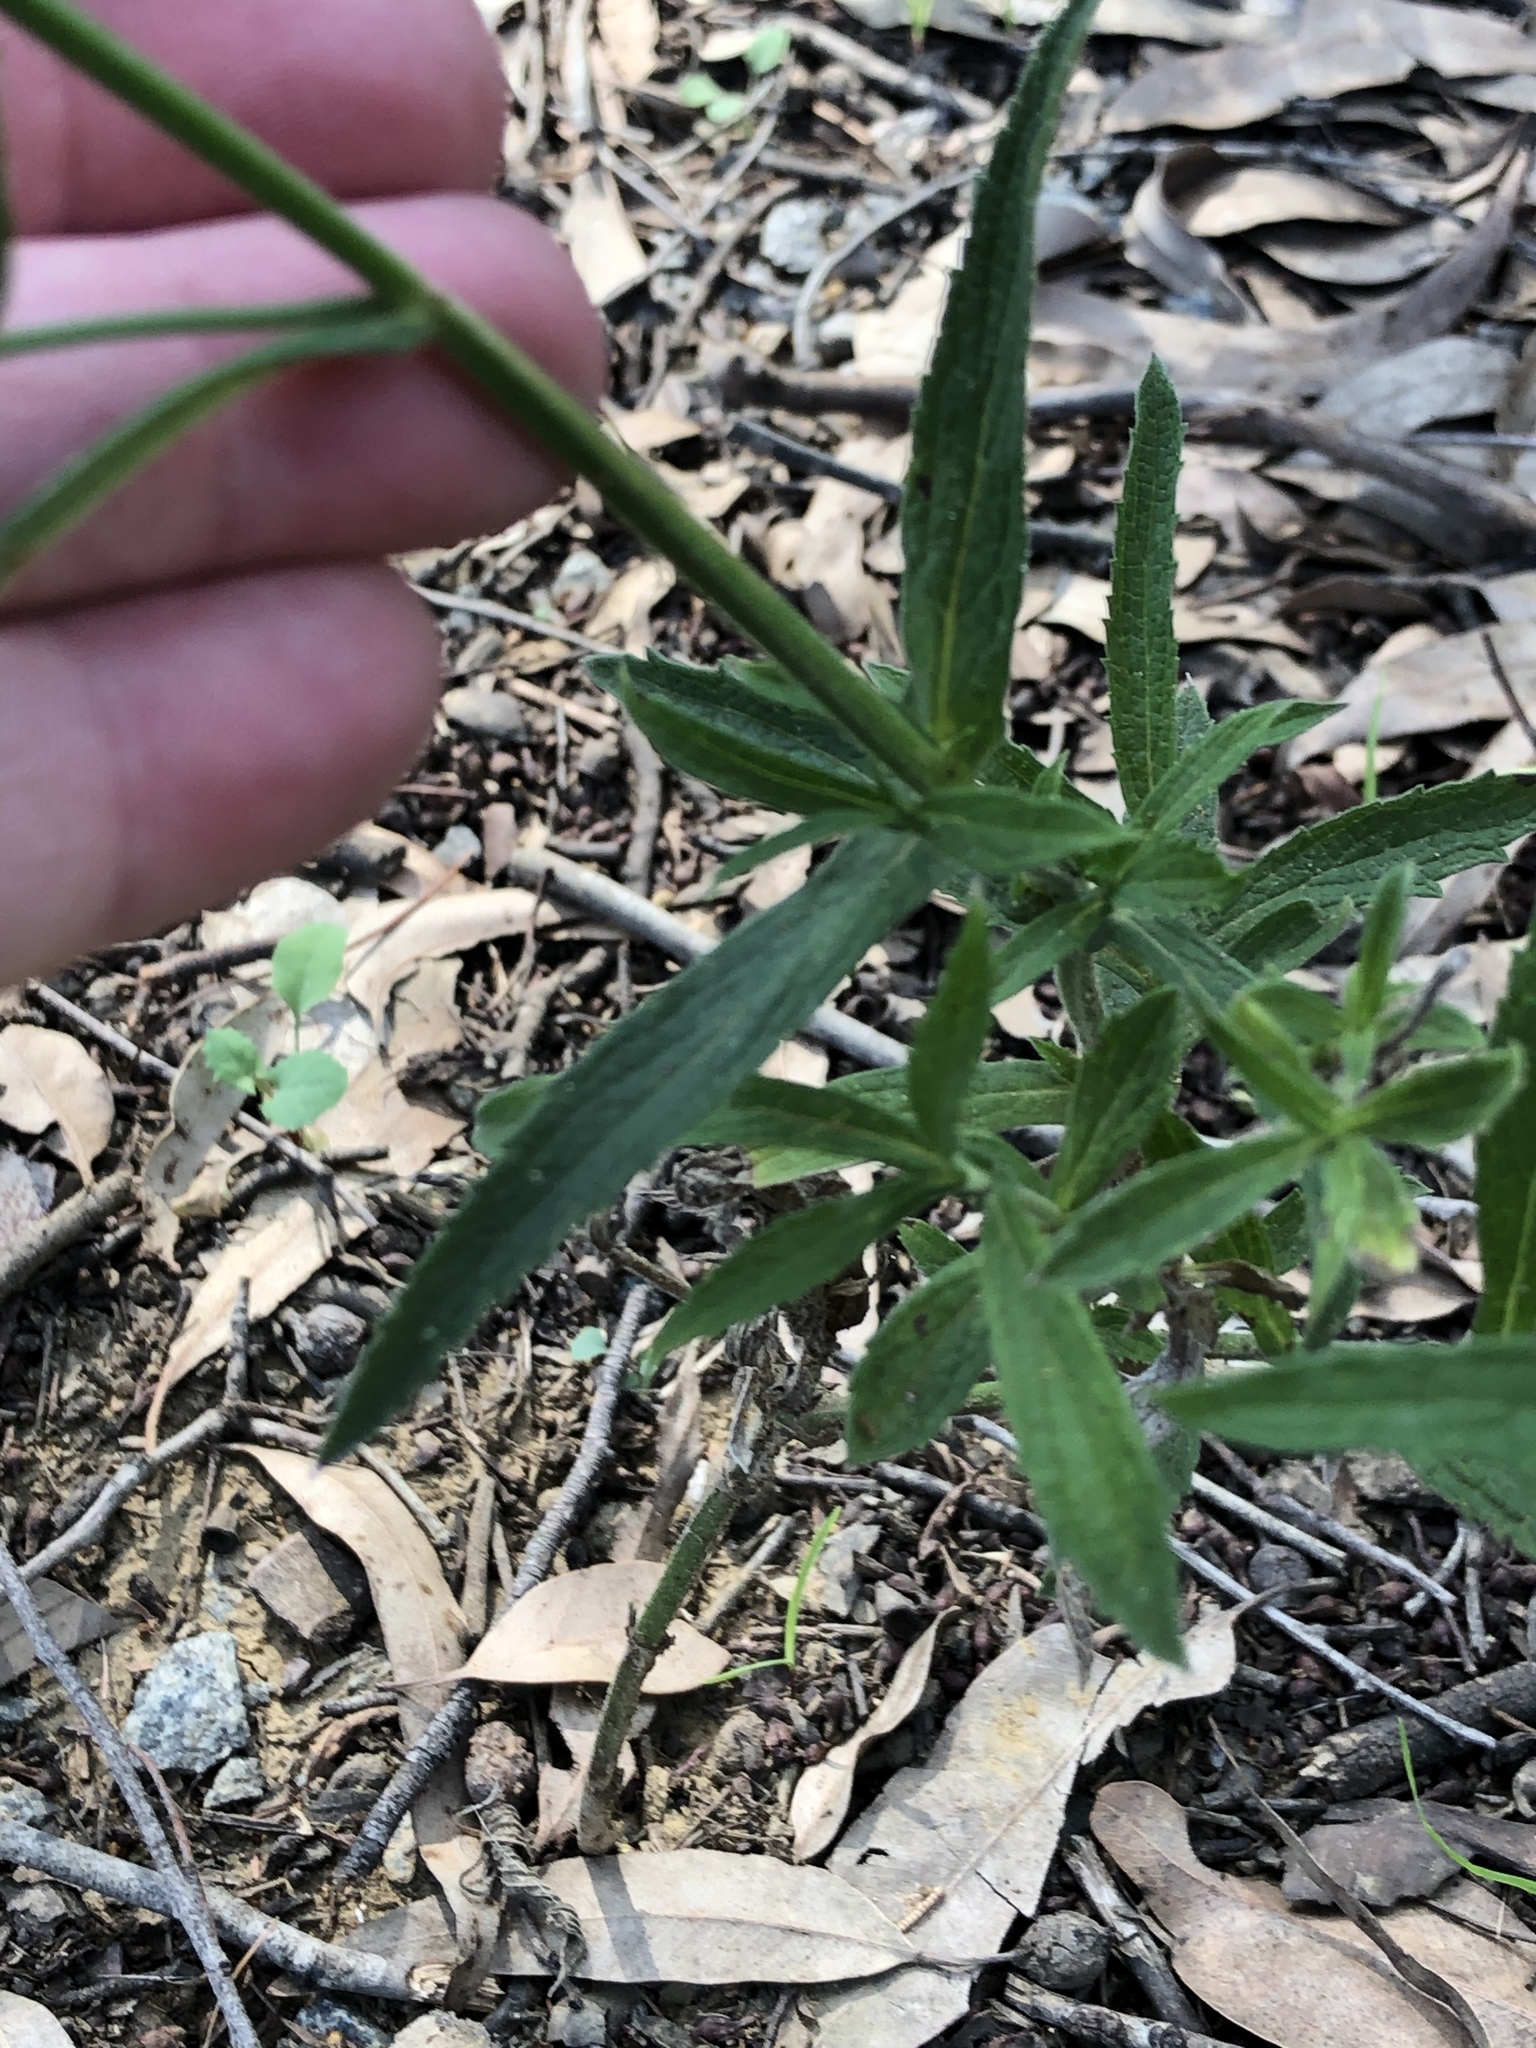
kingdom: Plantae
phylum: Tracheophyta
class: Magnoliopsida
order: Lamiales
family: Verbenaceae
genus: Verbena
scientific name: Verbena bonariensis
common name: Purpletop vervain
